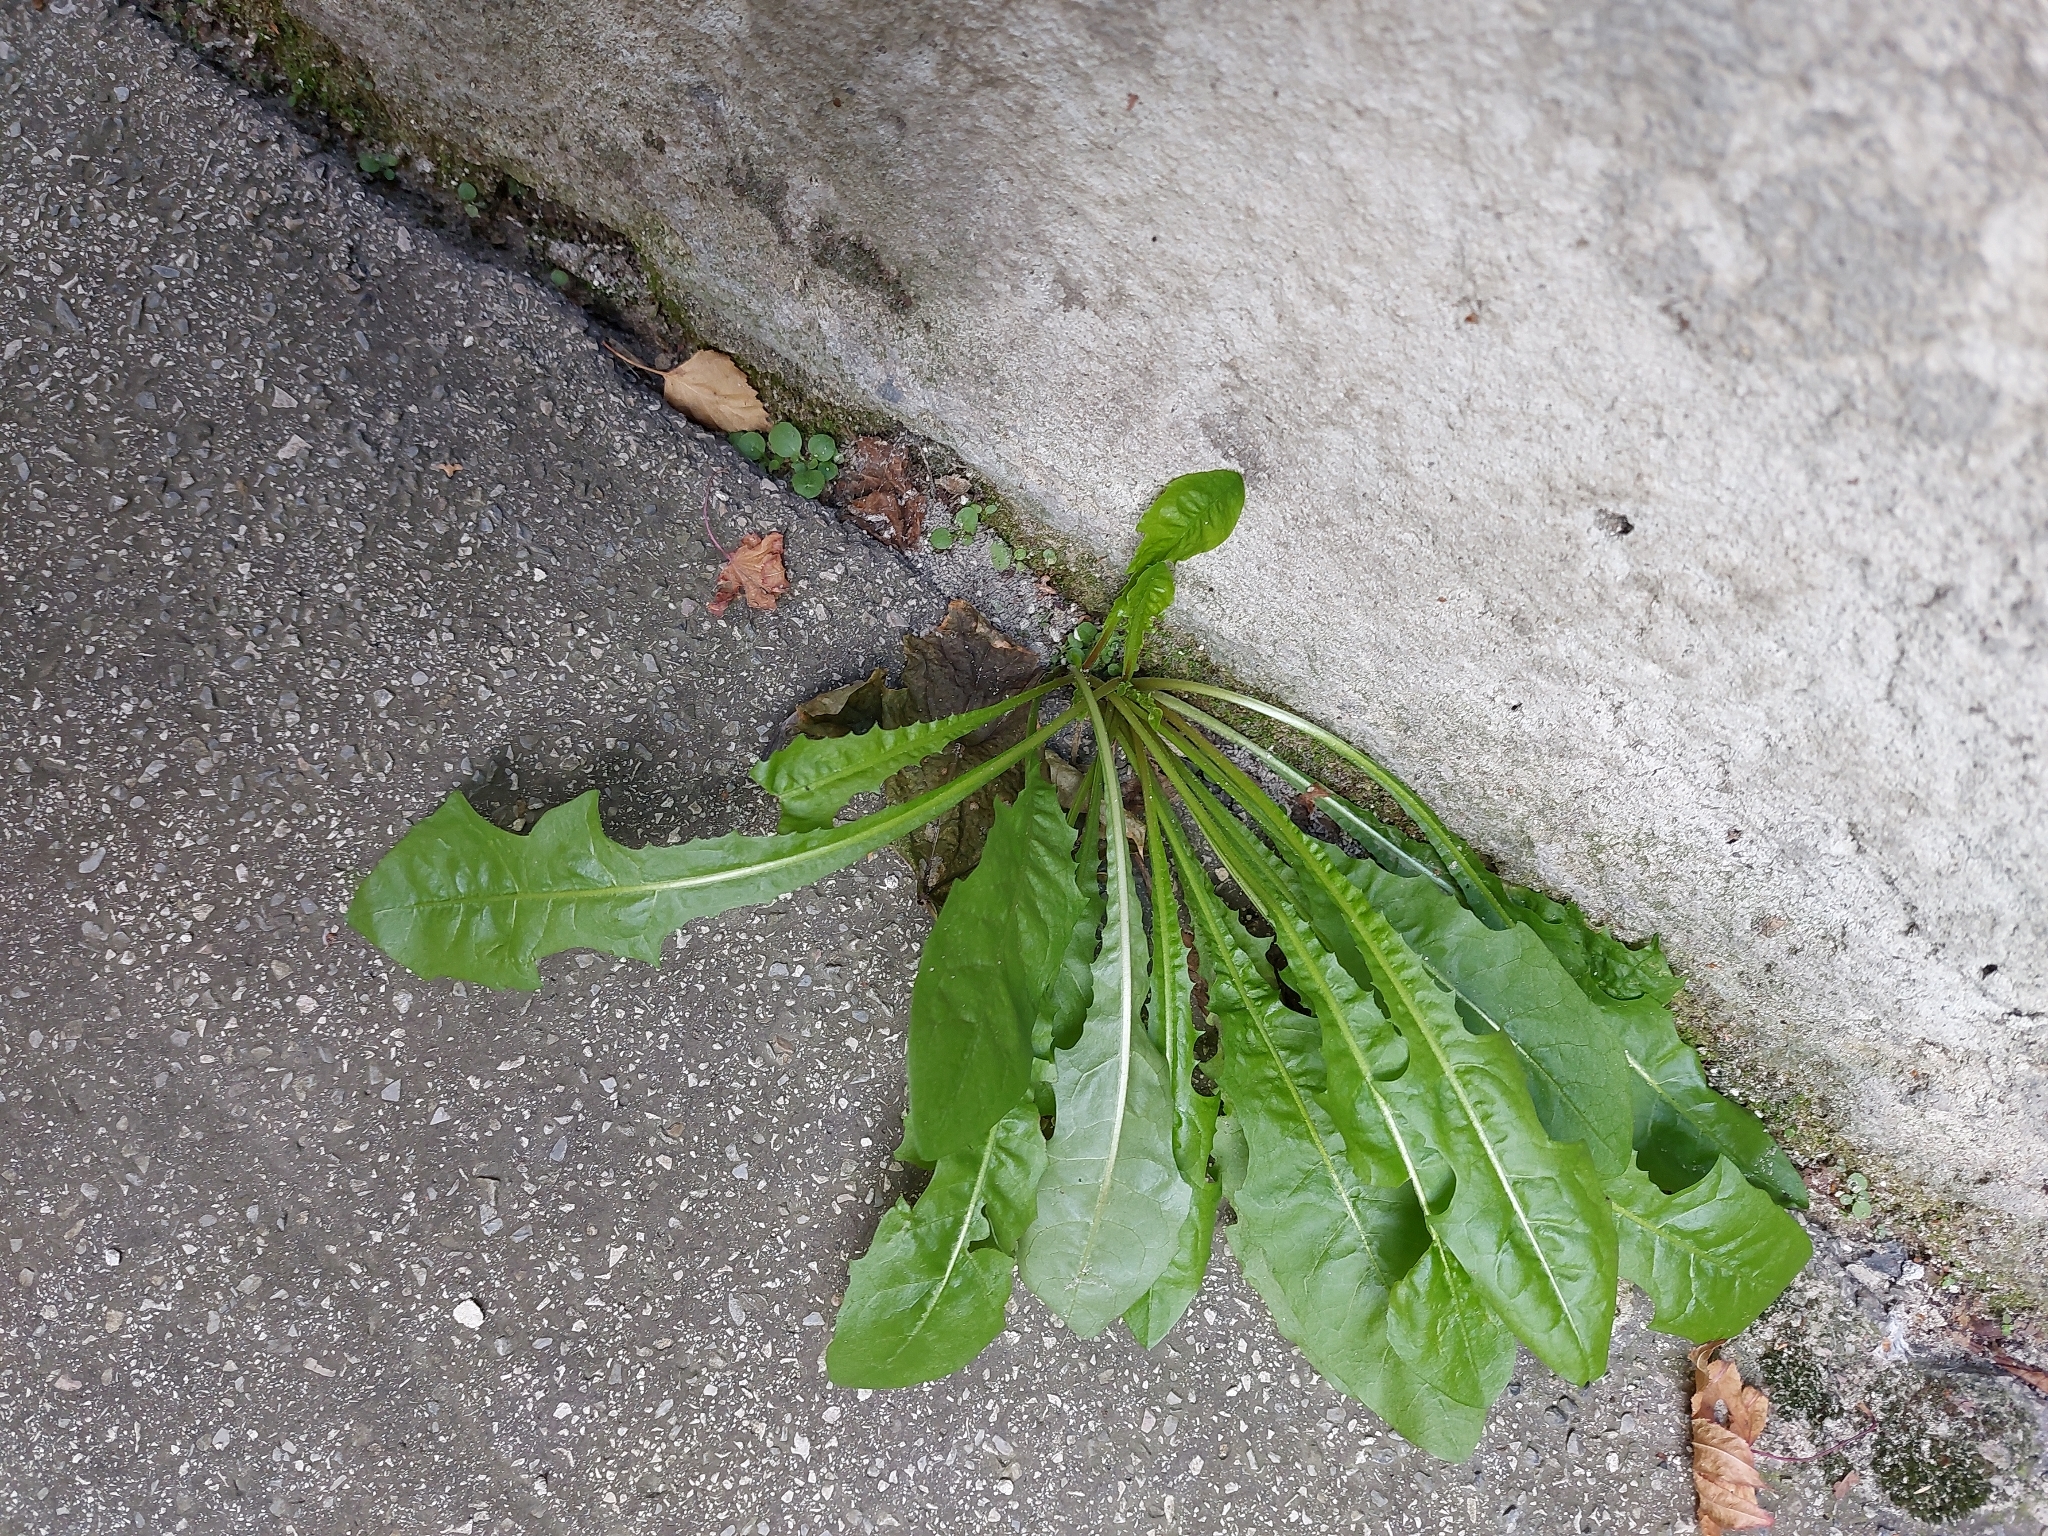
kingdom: Plantae
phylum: Tracheophyta
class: Magnoliopsida
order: Asterales
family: Asteraceae
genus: Taraxacum
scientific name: Taraxacum officinale
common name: Common dandelion
